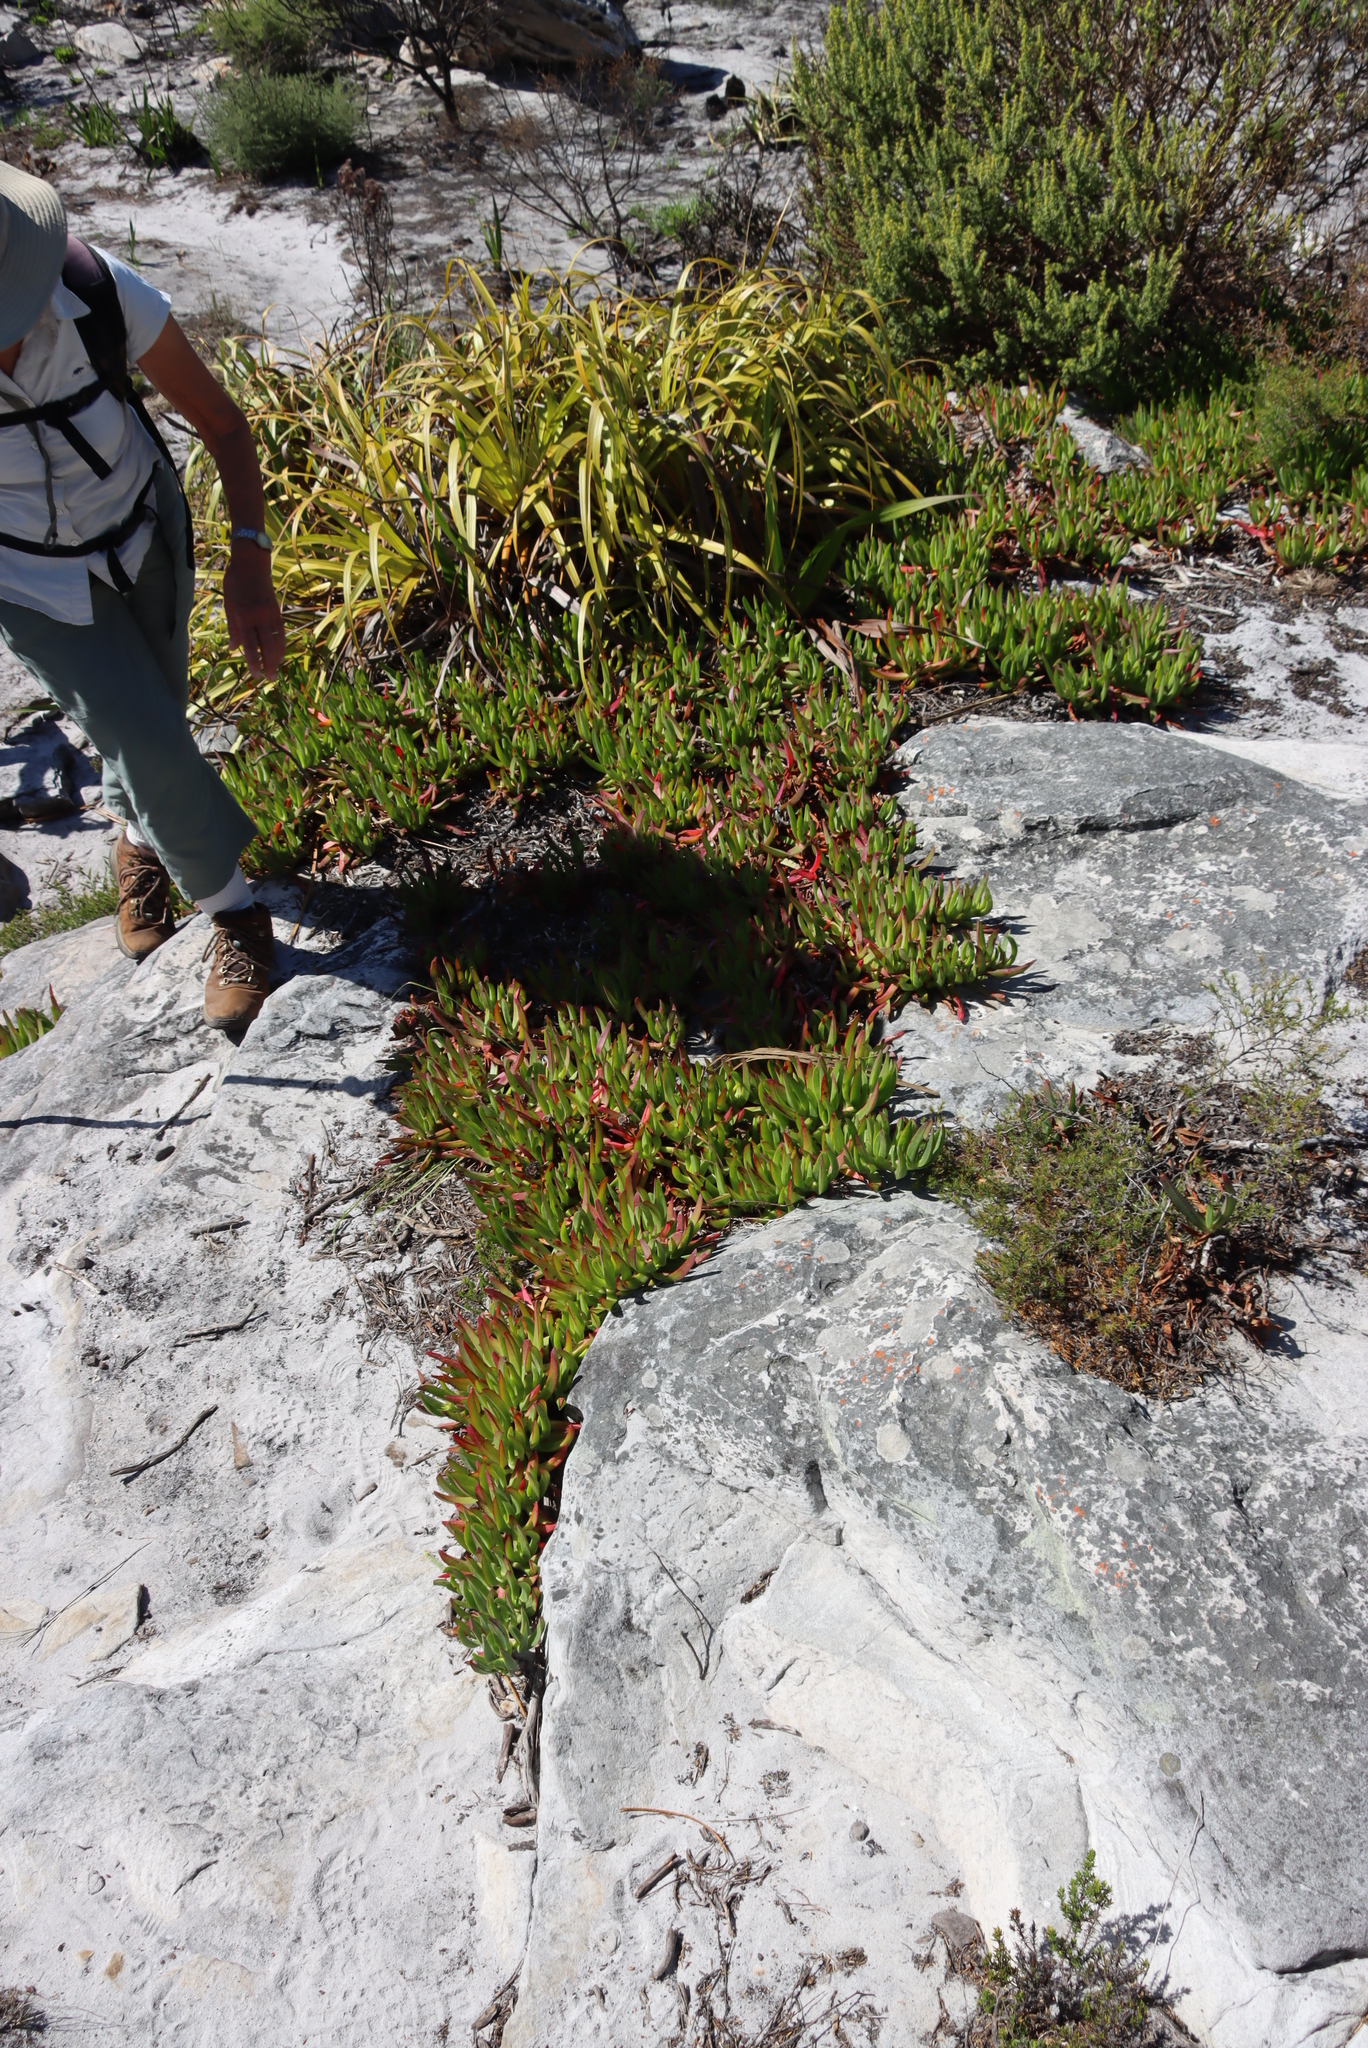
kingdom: Plantae
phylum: Tracheophyta
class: Magnoliopsida
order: Caryophyllales
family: Aizoaceae
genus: Carpobrotus
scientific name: Carpobrotus edulis
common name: Hottentot-fig
